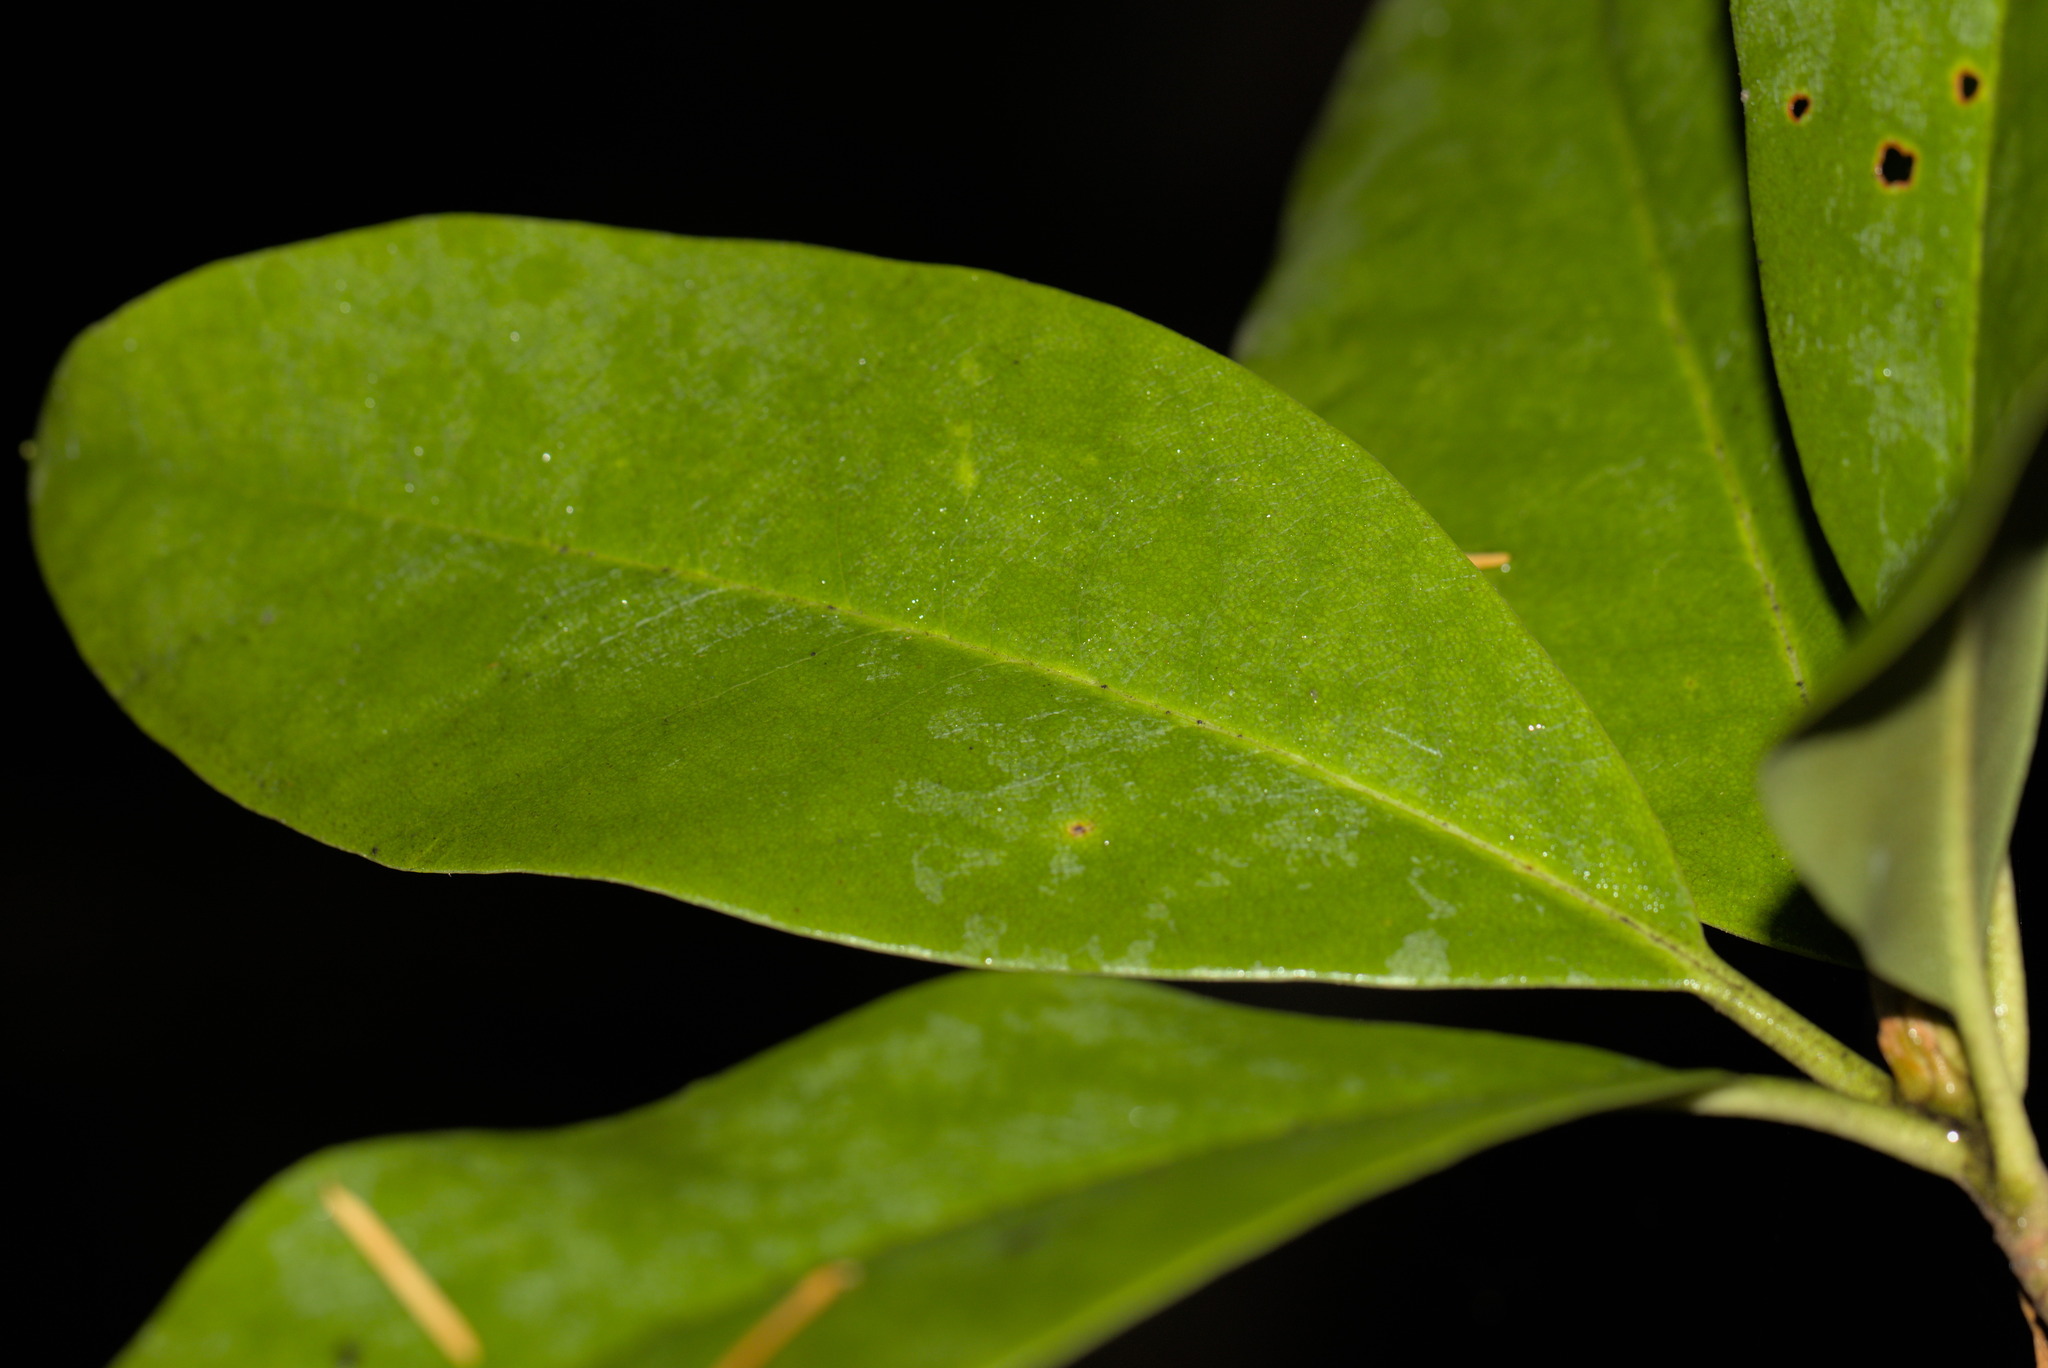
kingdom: Plantae
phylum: Tracheophyta
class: Magnoliopsida
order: Ericales
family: Ericaceae
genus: Rhododendron
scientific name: Rhododendron macrophyllum
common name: California rose bay
